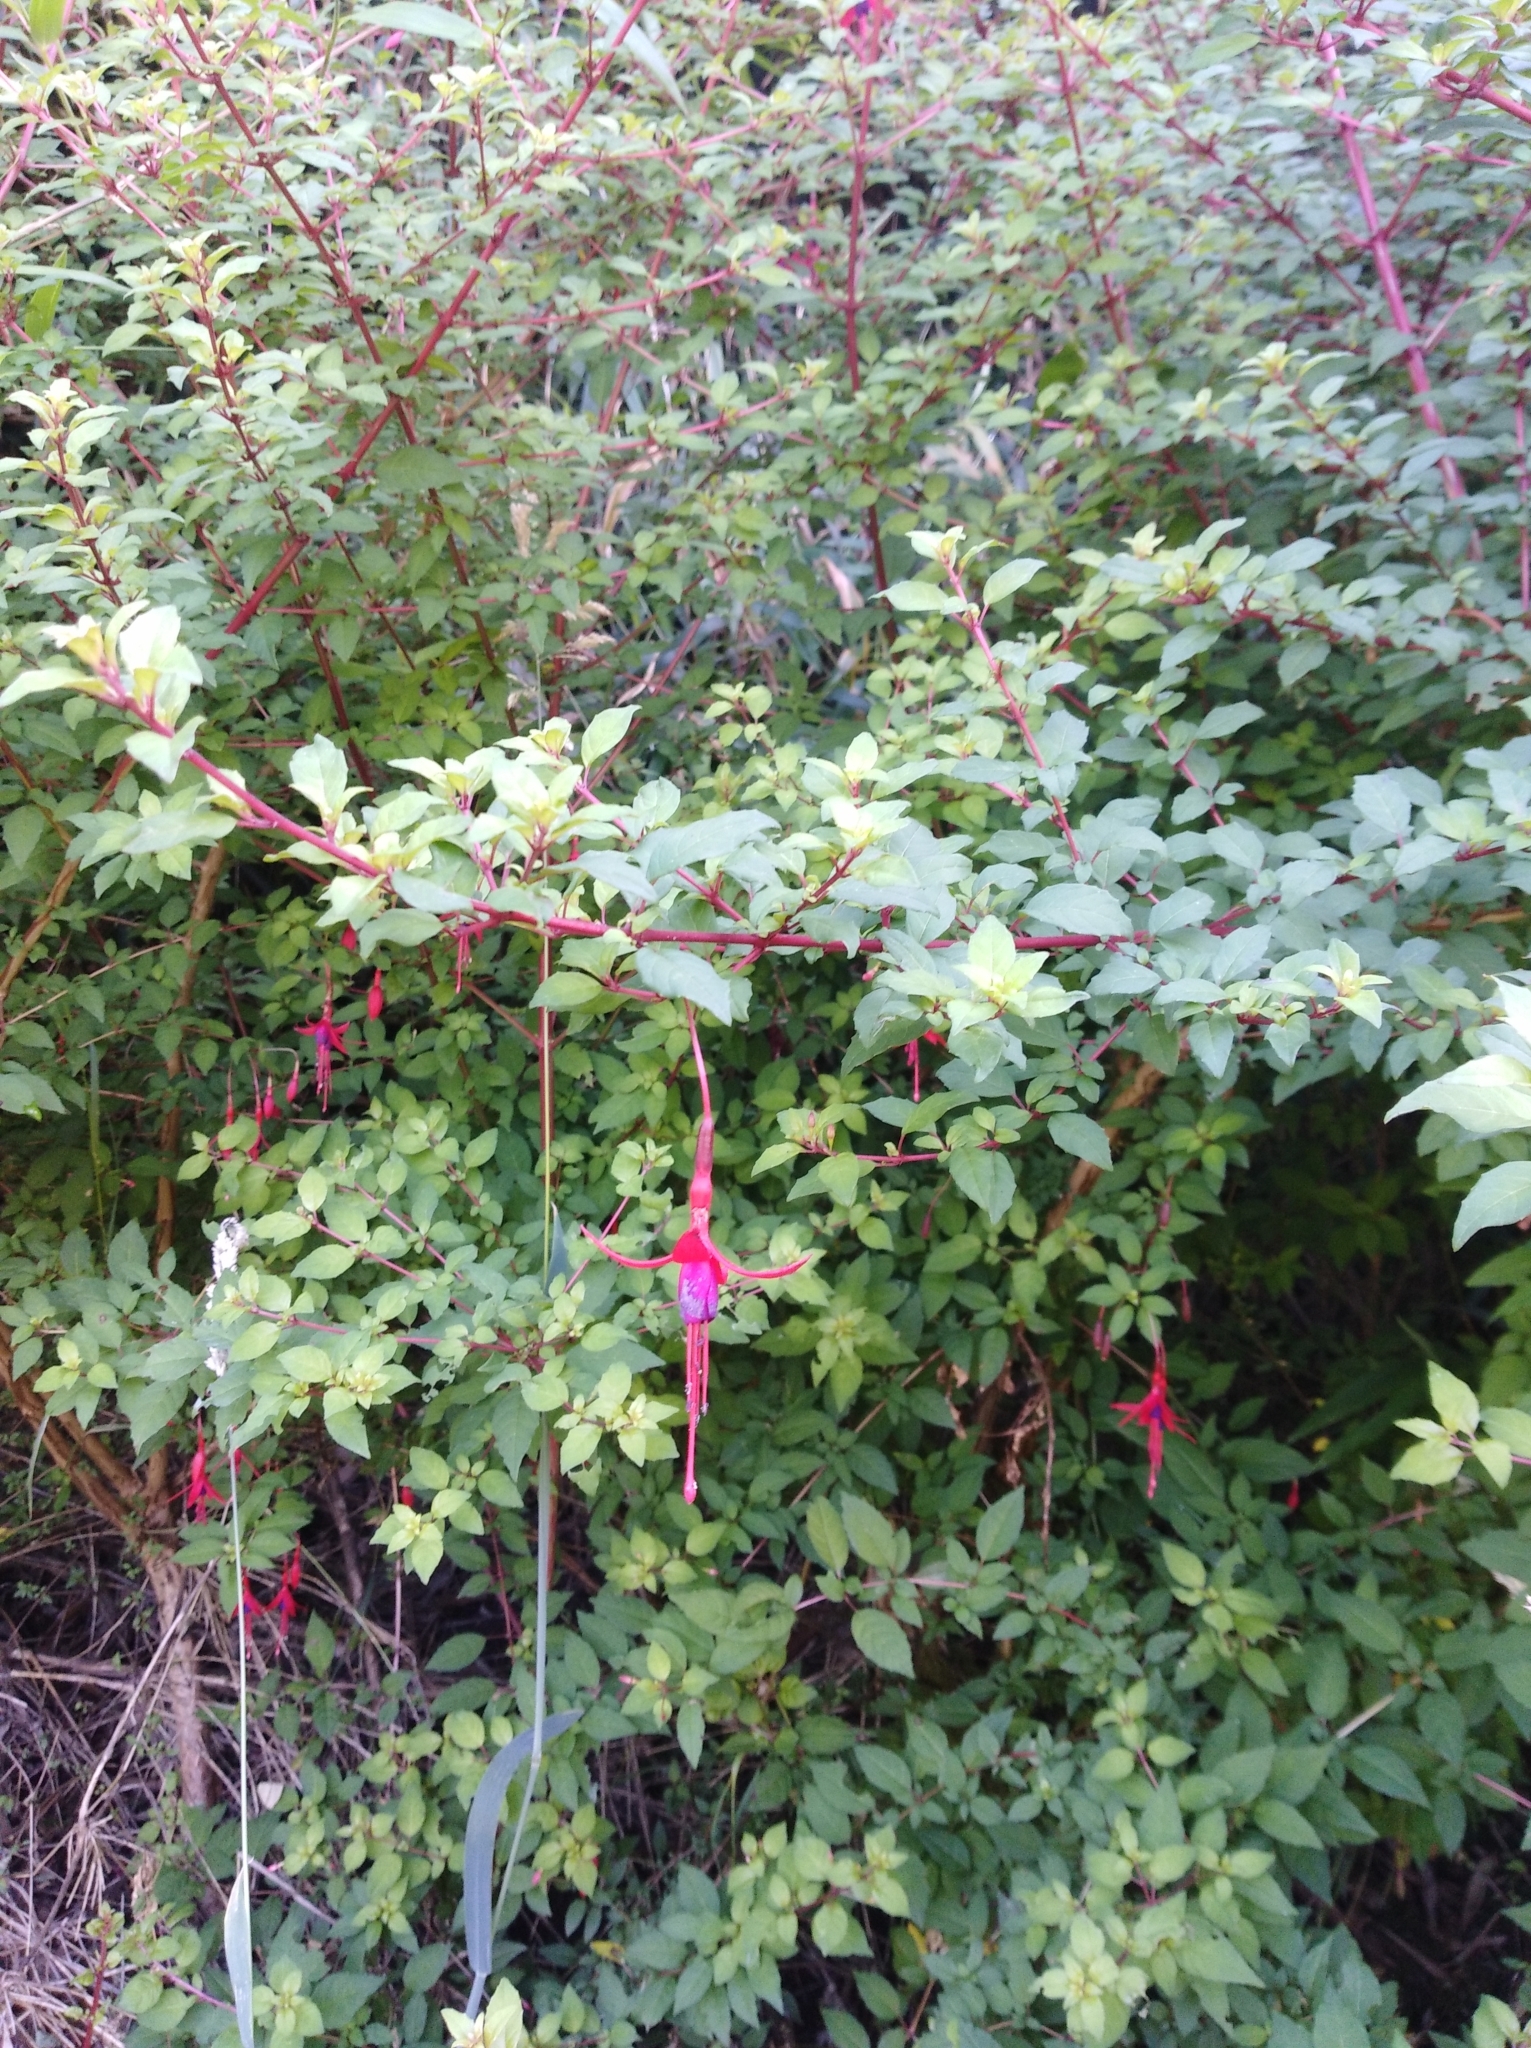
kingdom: Plantae
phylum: Tracheophyta
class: Magnoliopsida
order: Myrtales
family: Onagraceae
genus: Fuchsia
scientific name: Fuchsia magellanica
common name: Hardy fuchsia
